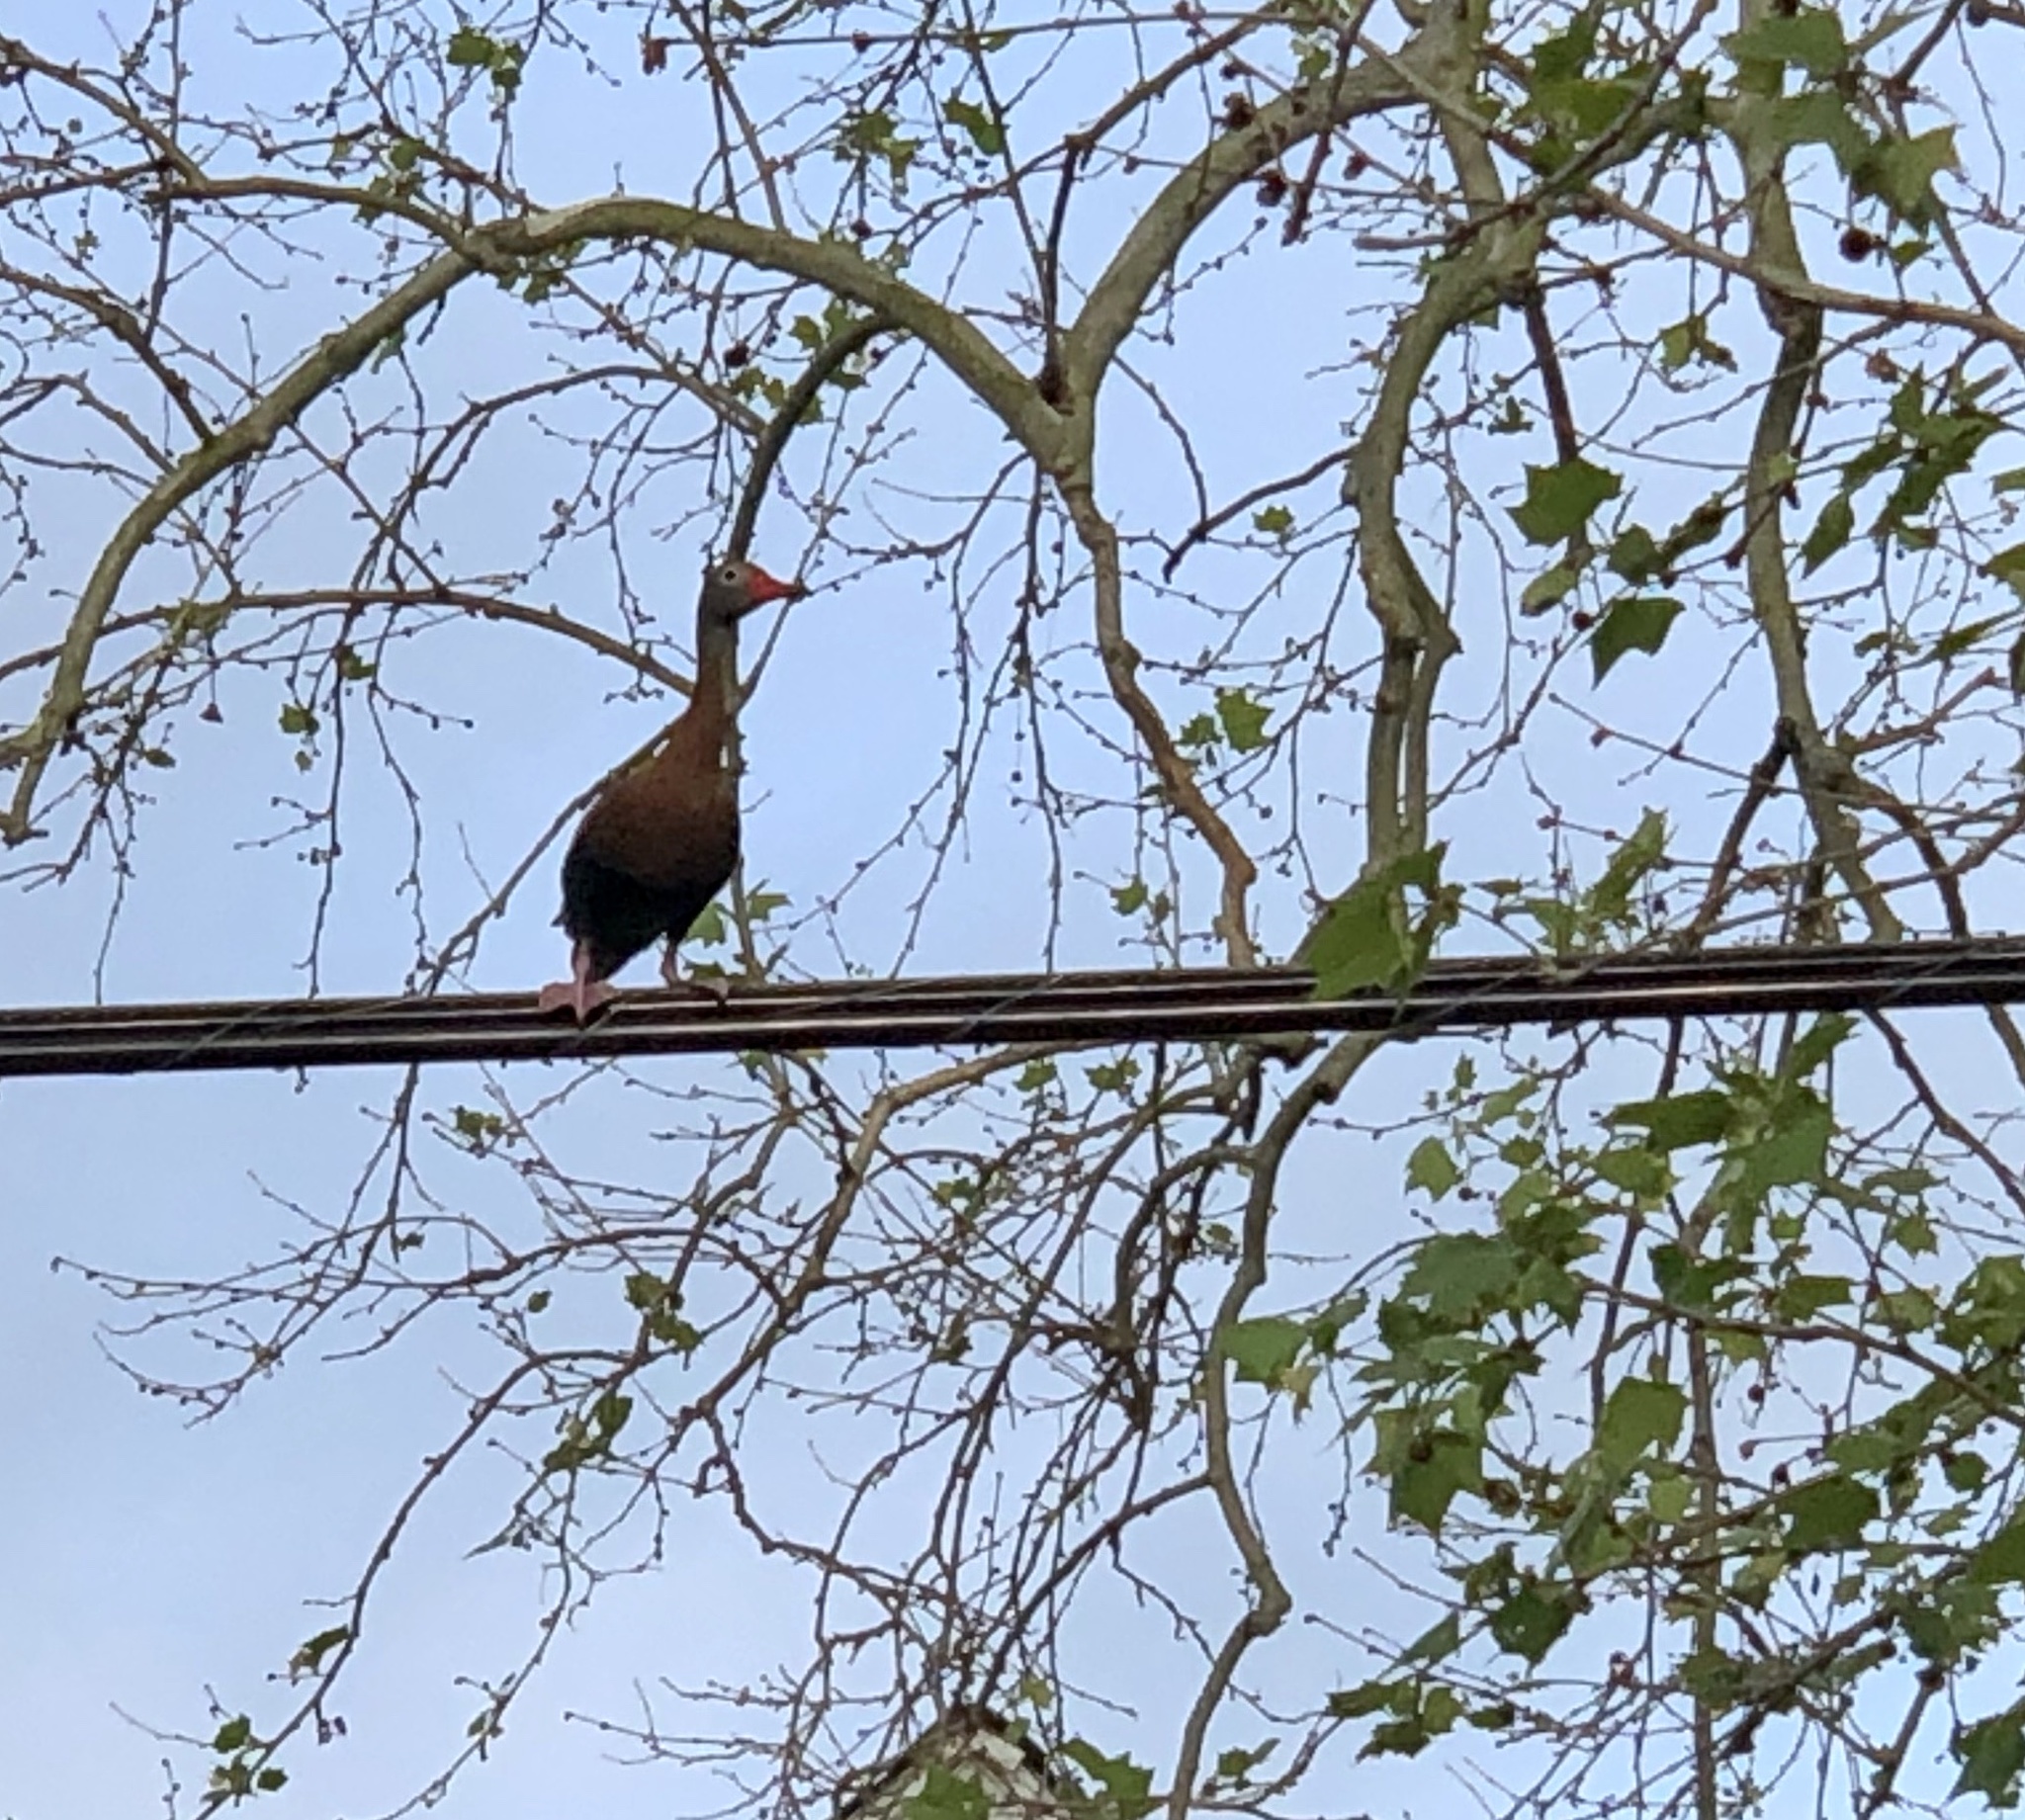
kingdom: Animalia
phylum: Chordata
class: Aves
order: Anseriformes
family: Anatidae
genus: Dendrocygna
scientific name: Dendrocygna autumnalis
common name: Black-bellied whistling duck
